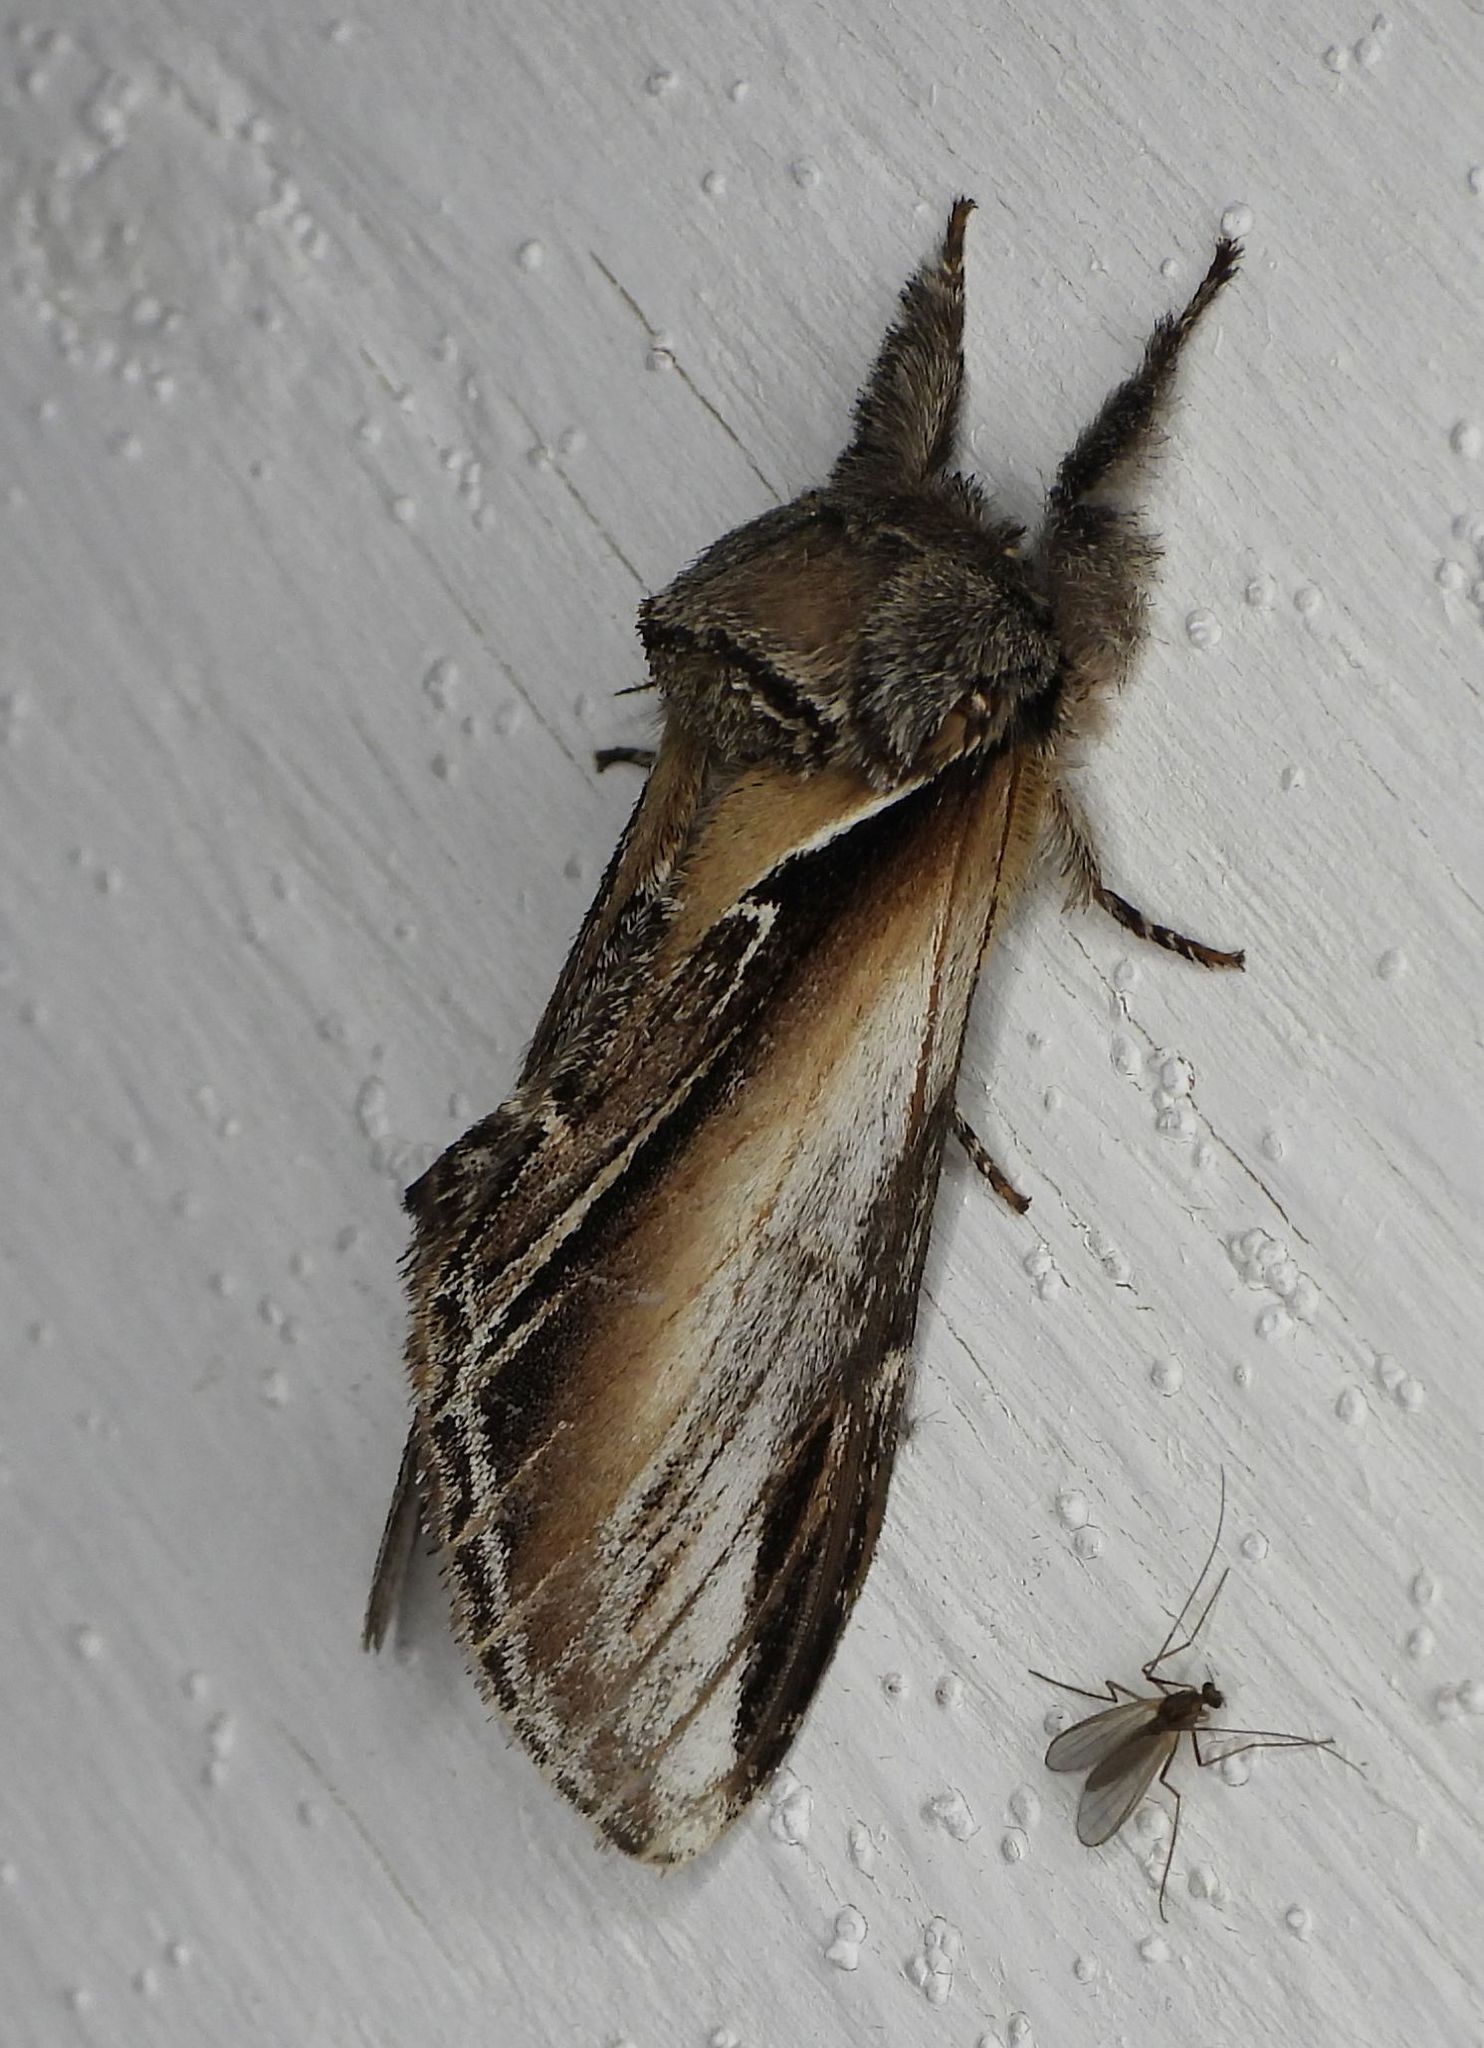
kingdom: Animalia
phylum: Arthropoda
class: Insecta
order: Lepidoptera
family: Notodontidae
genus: Pheosia
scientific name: Pheosia rimosa
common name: Black-rimmed prominent
